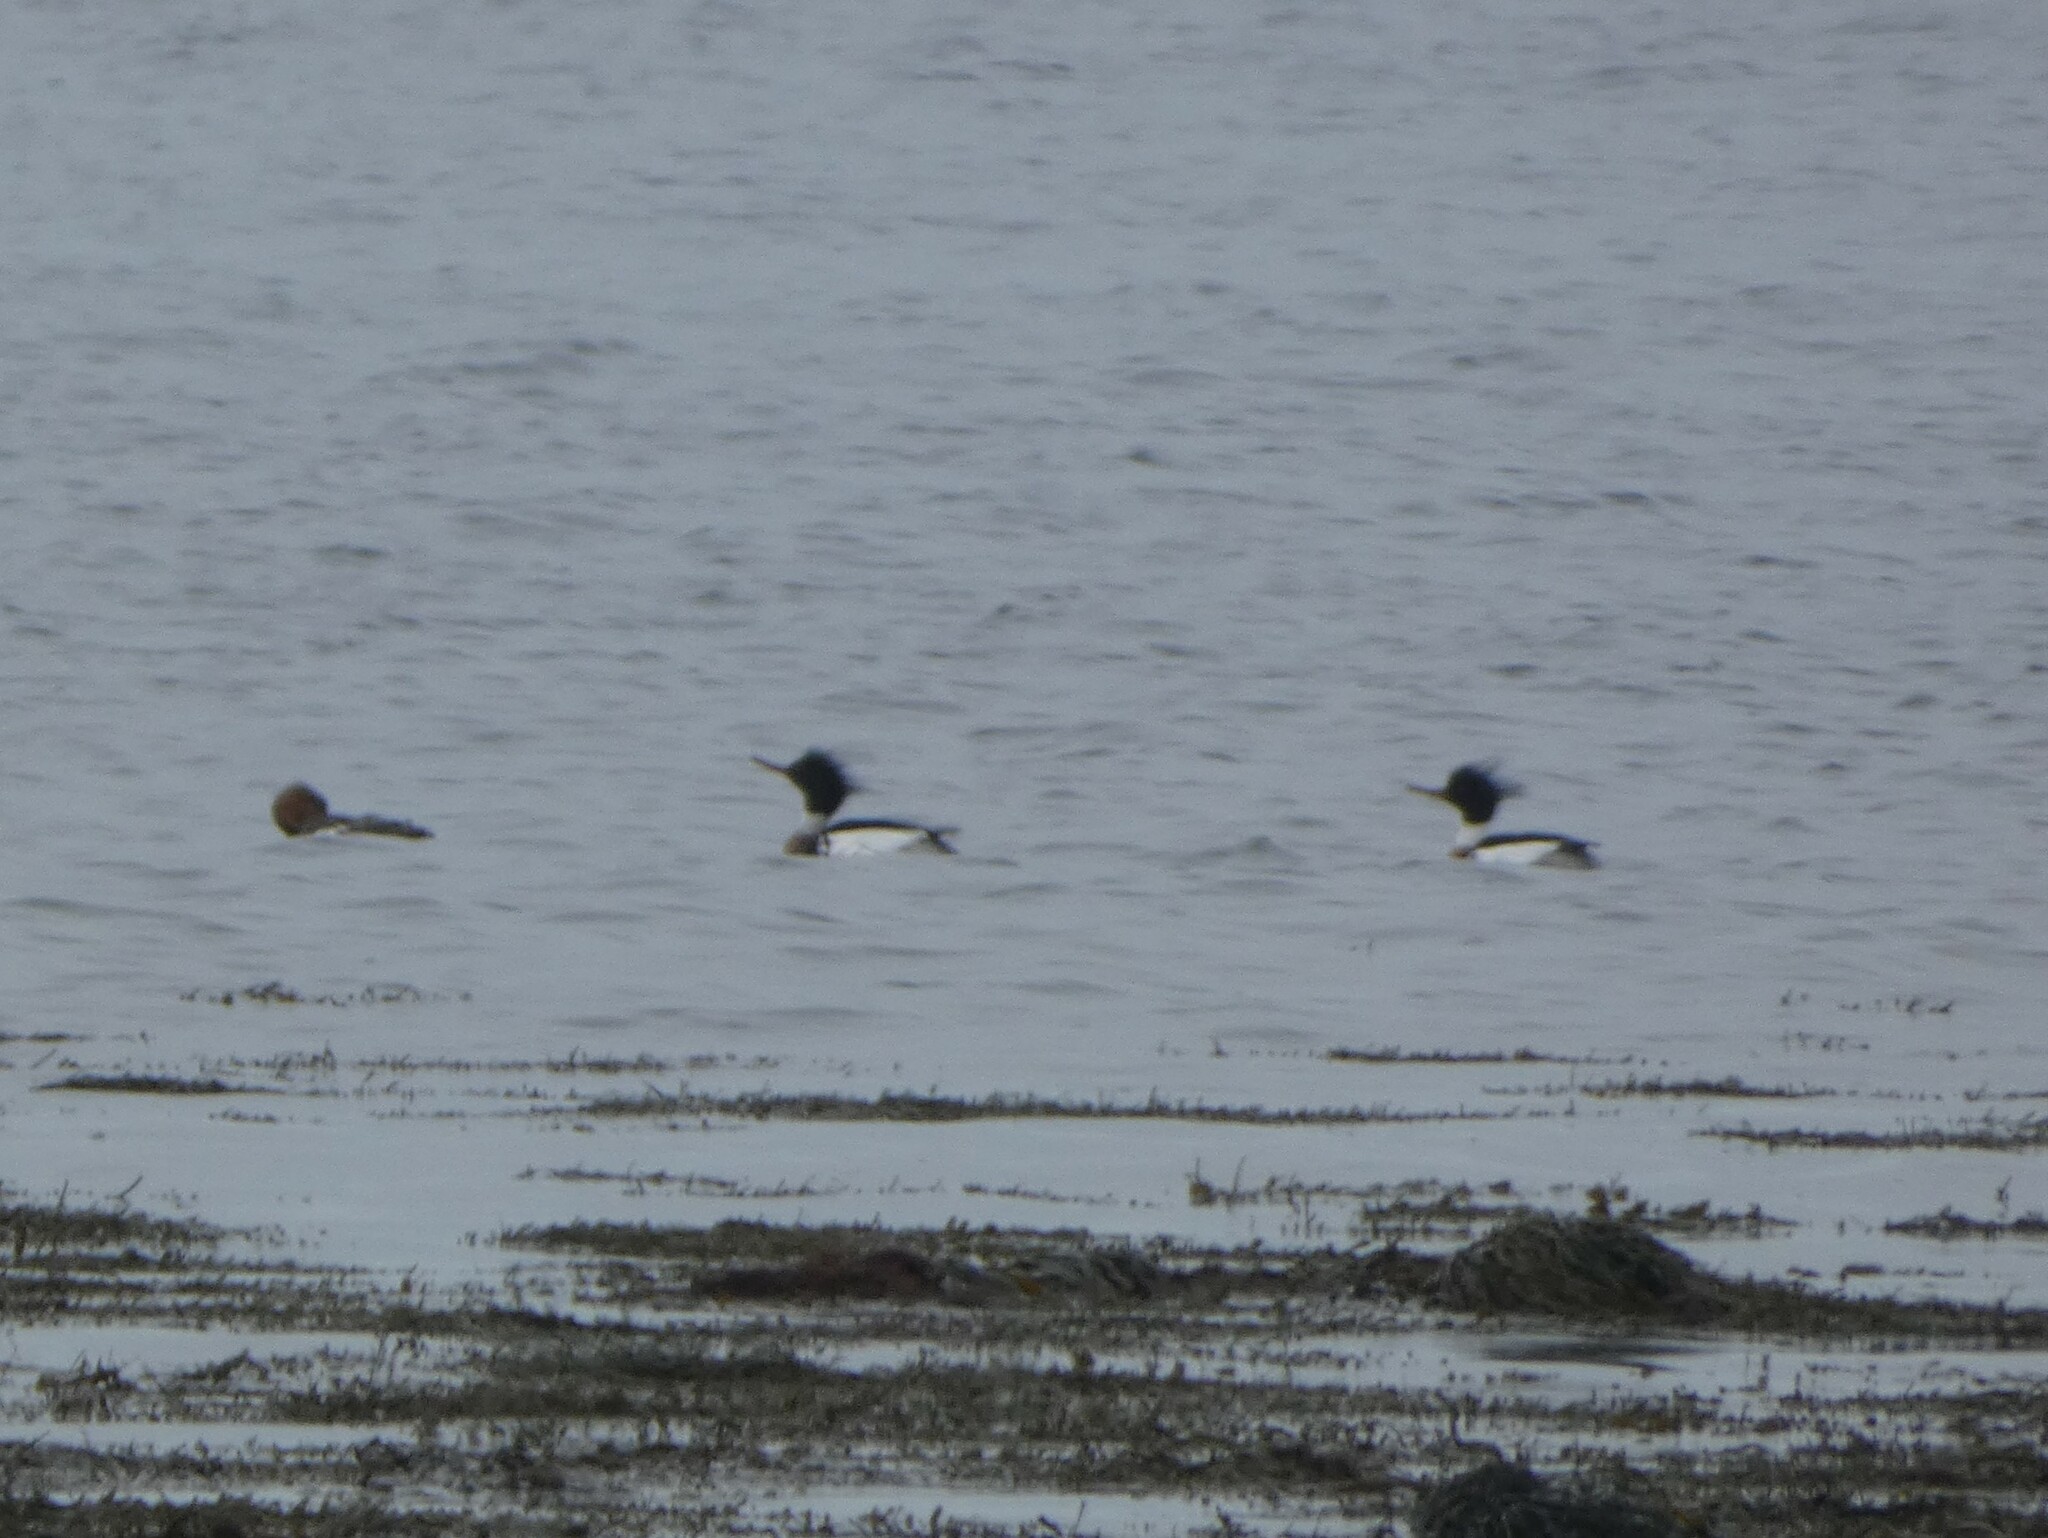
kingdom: Animalia
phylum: Chordata
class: Aves
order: Anseriformes
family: Anatidae
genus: Mergus
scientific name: Mergus serrator
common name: Red-breasted merganser
